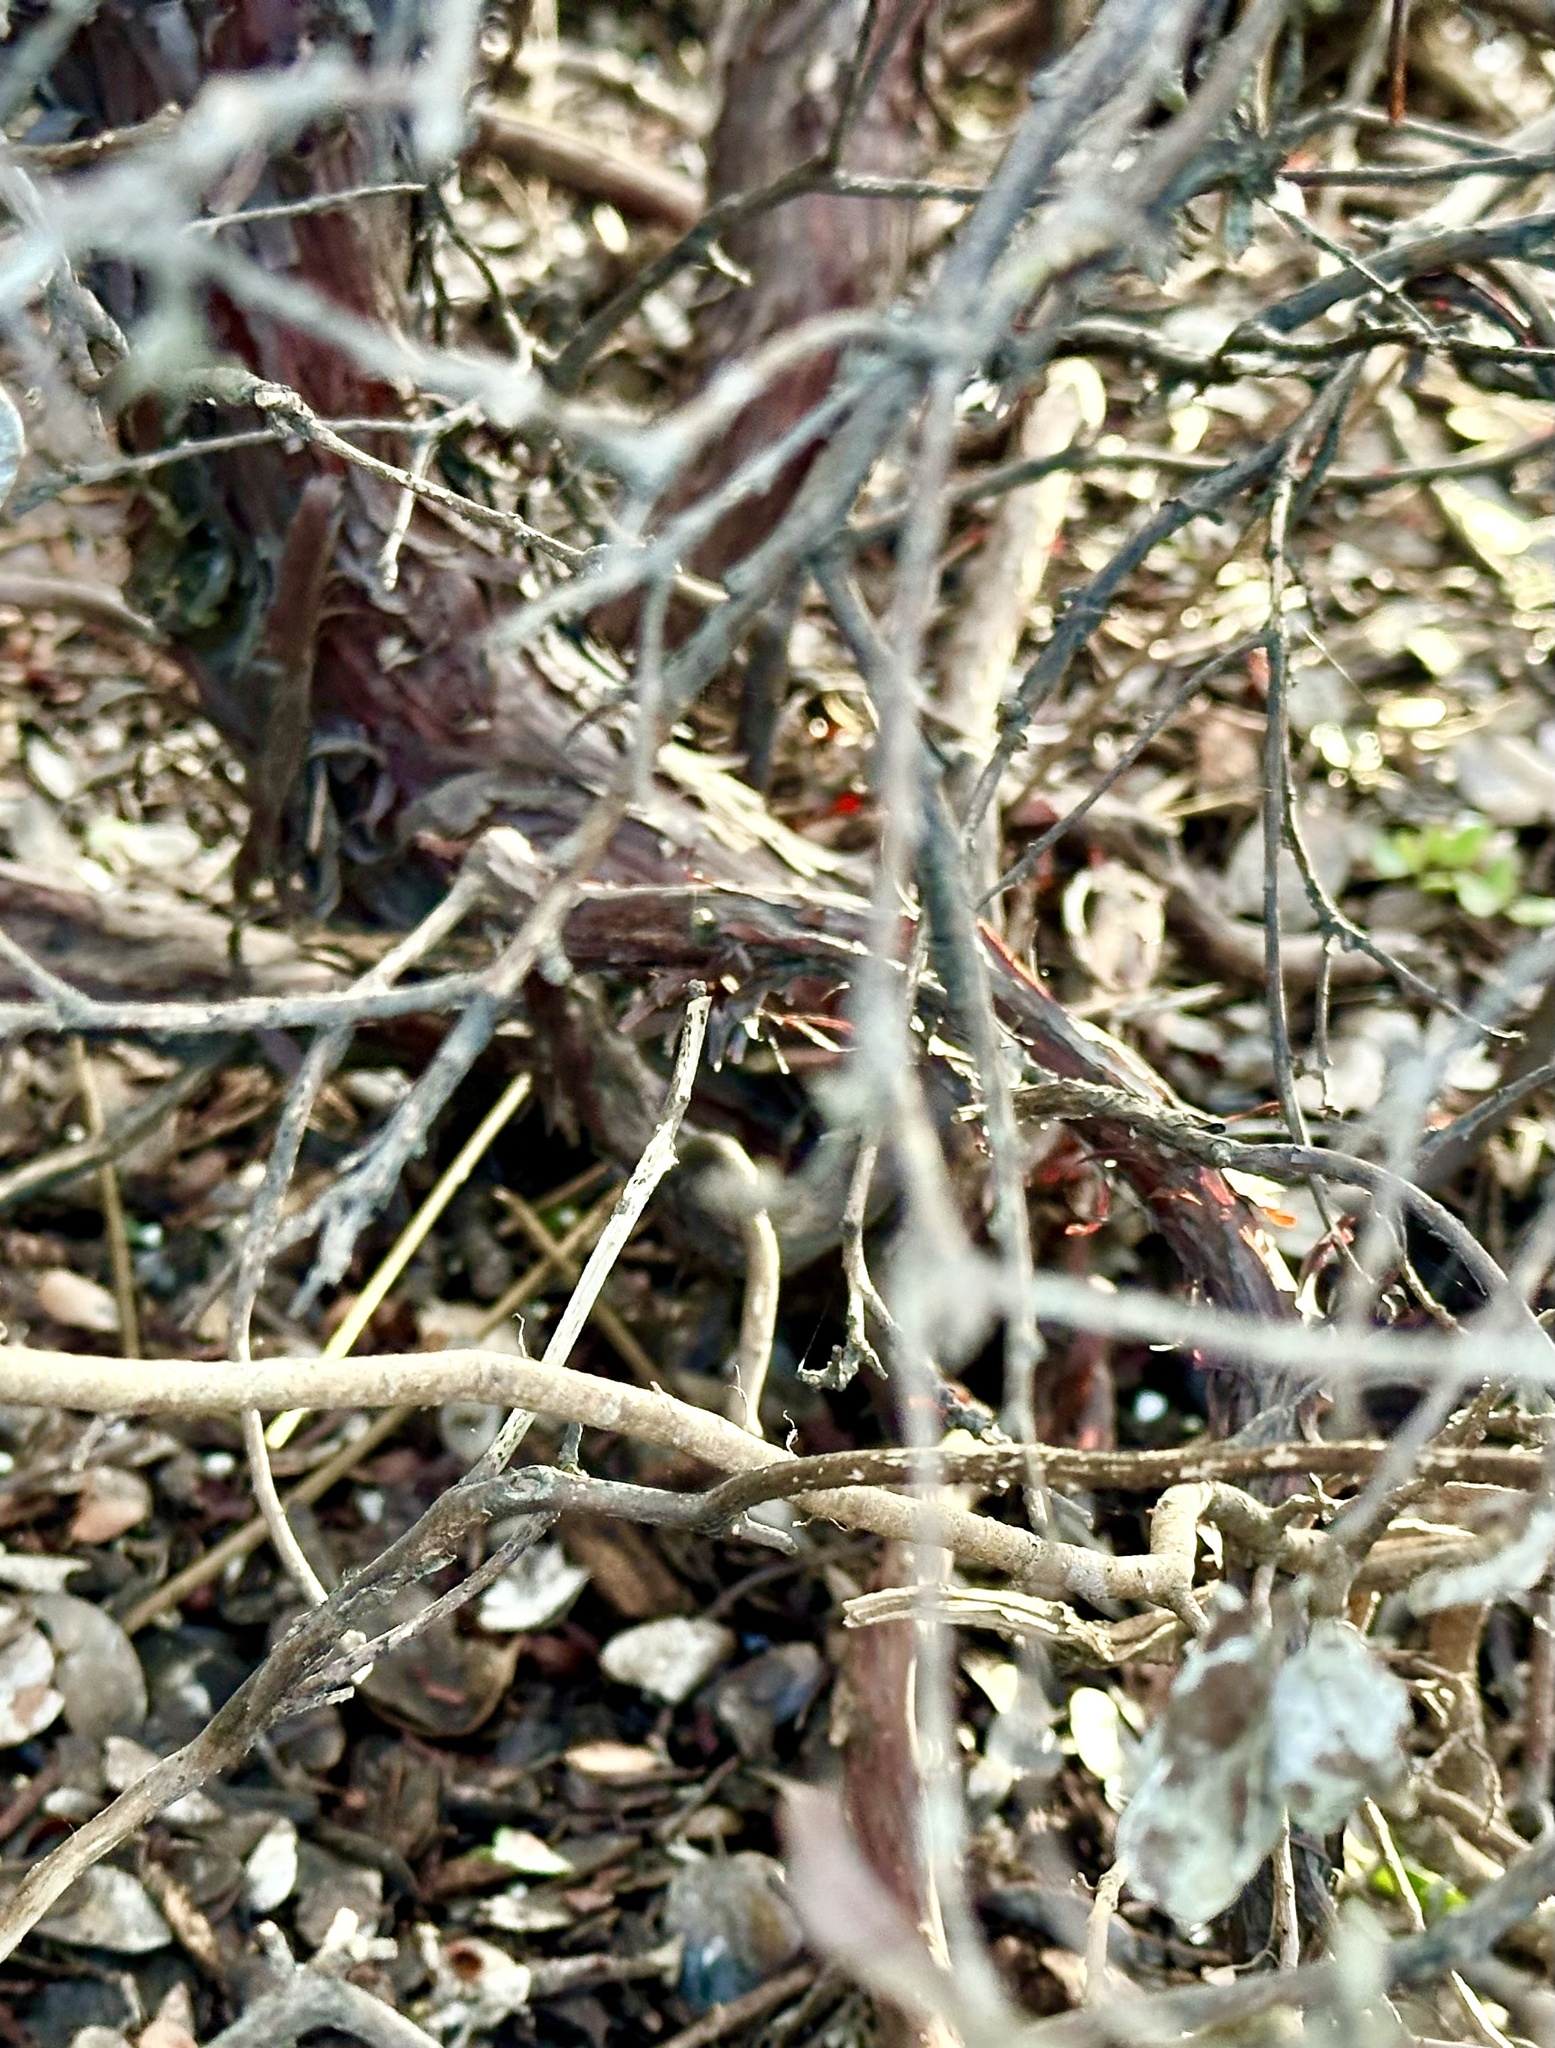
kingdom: Plantae
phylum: Tracheophyta
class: Magnoliopsida
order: Ericales
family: Ericaceae
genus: Arctostaphylos
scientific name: Arctostaphylos tomentosa
